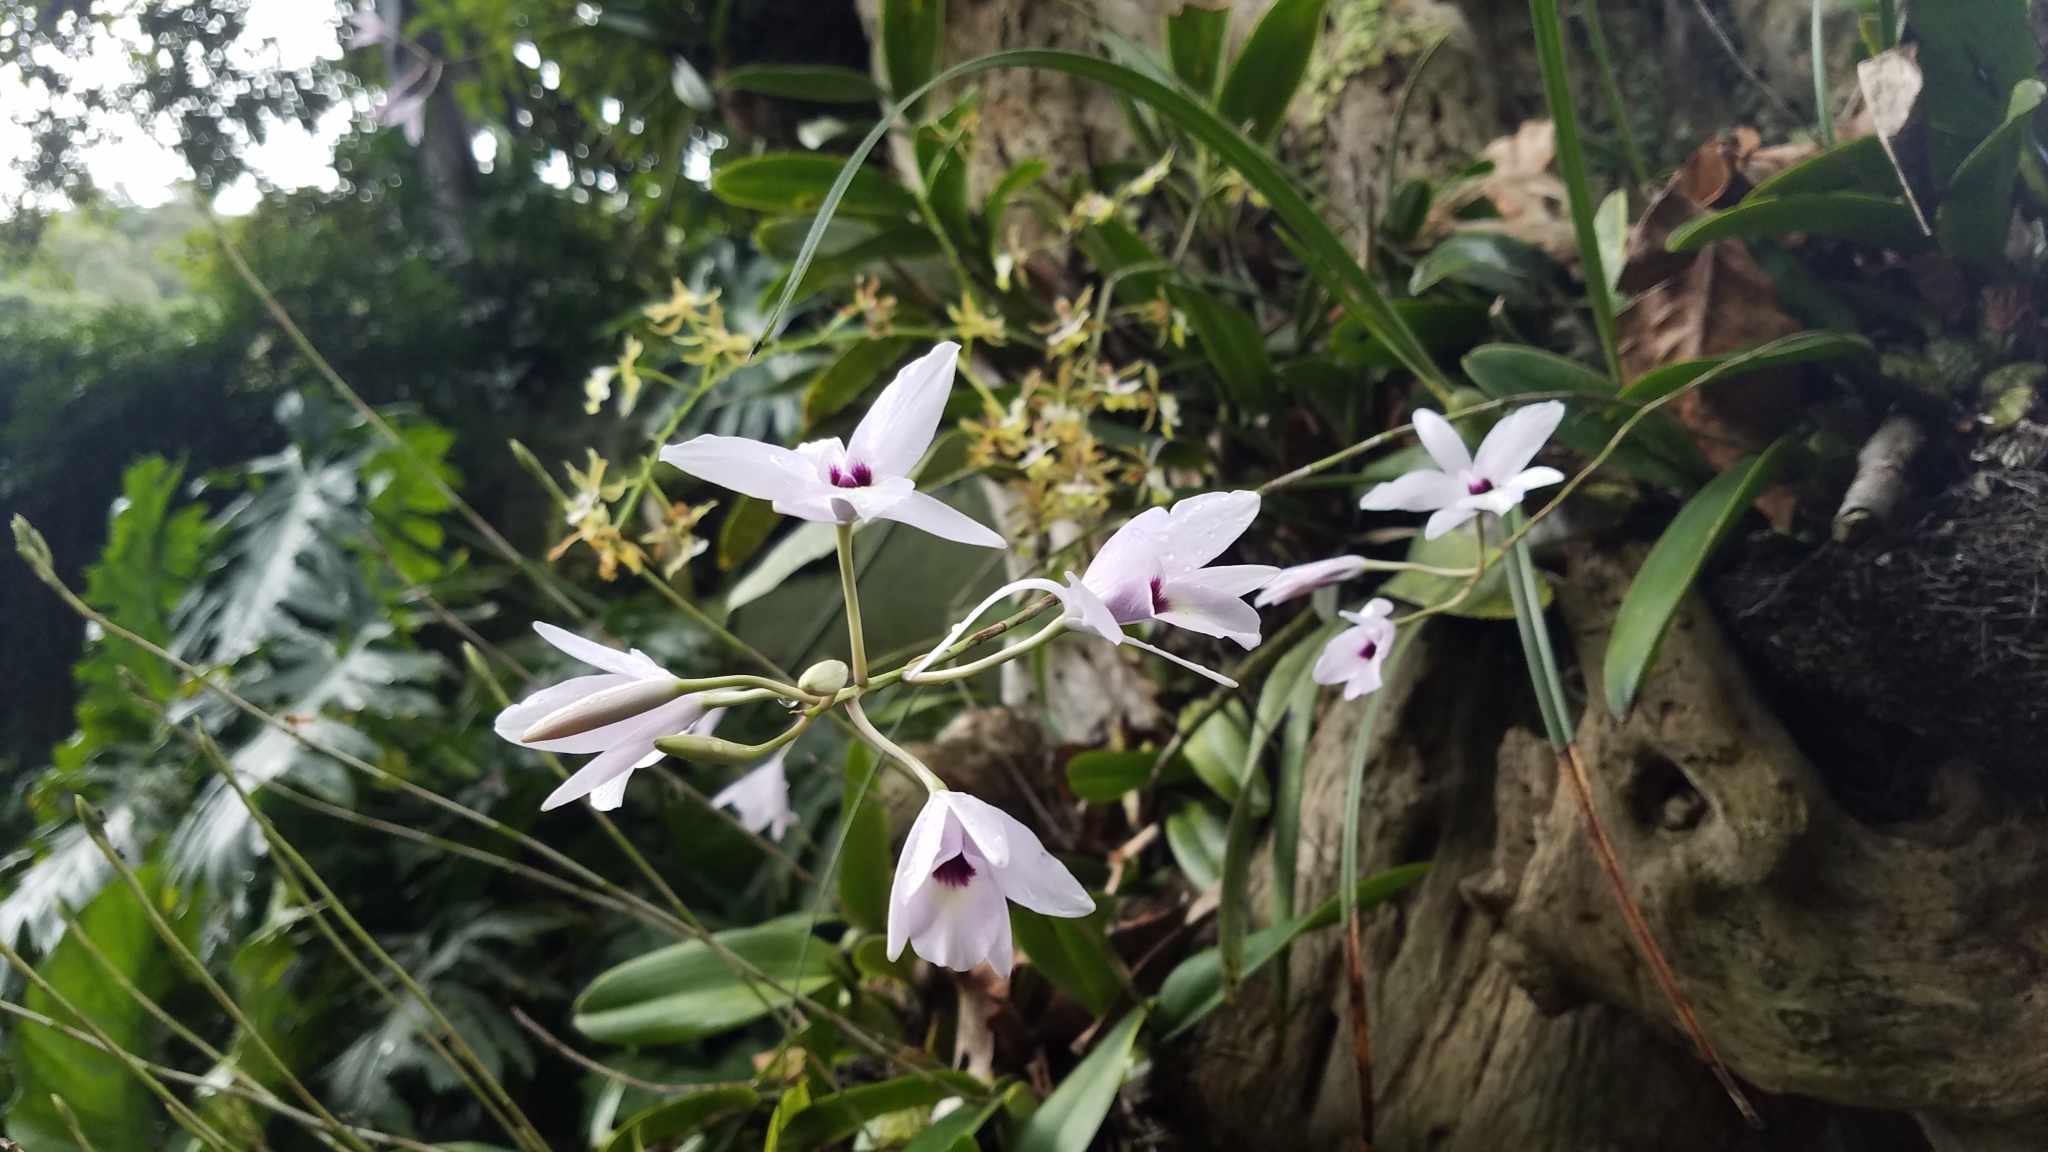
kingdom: Plantae
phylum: Tracheophyta
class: Liliopsida
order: Asparagales
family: Orchidaceae
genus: Laelia
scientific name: Laelia rubescens
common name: Pale laelia
